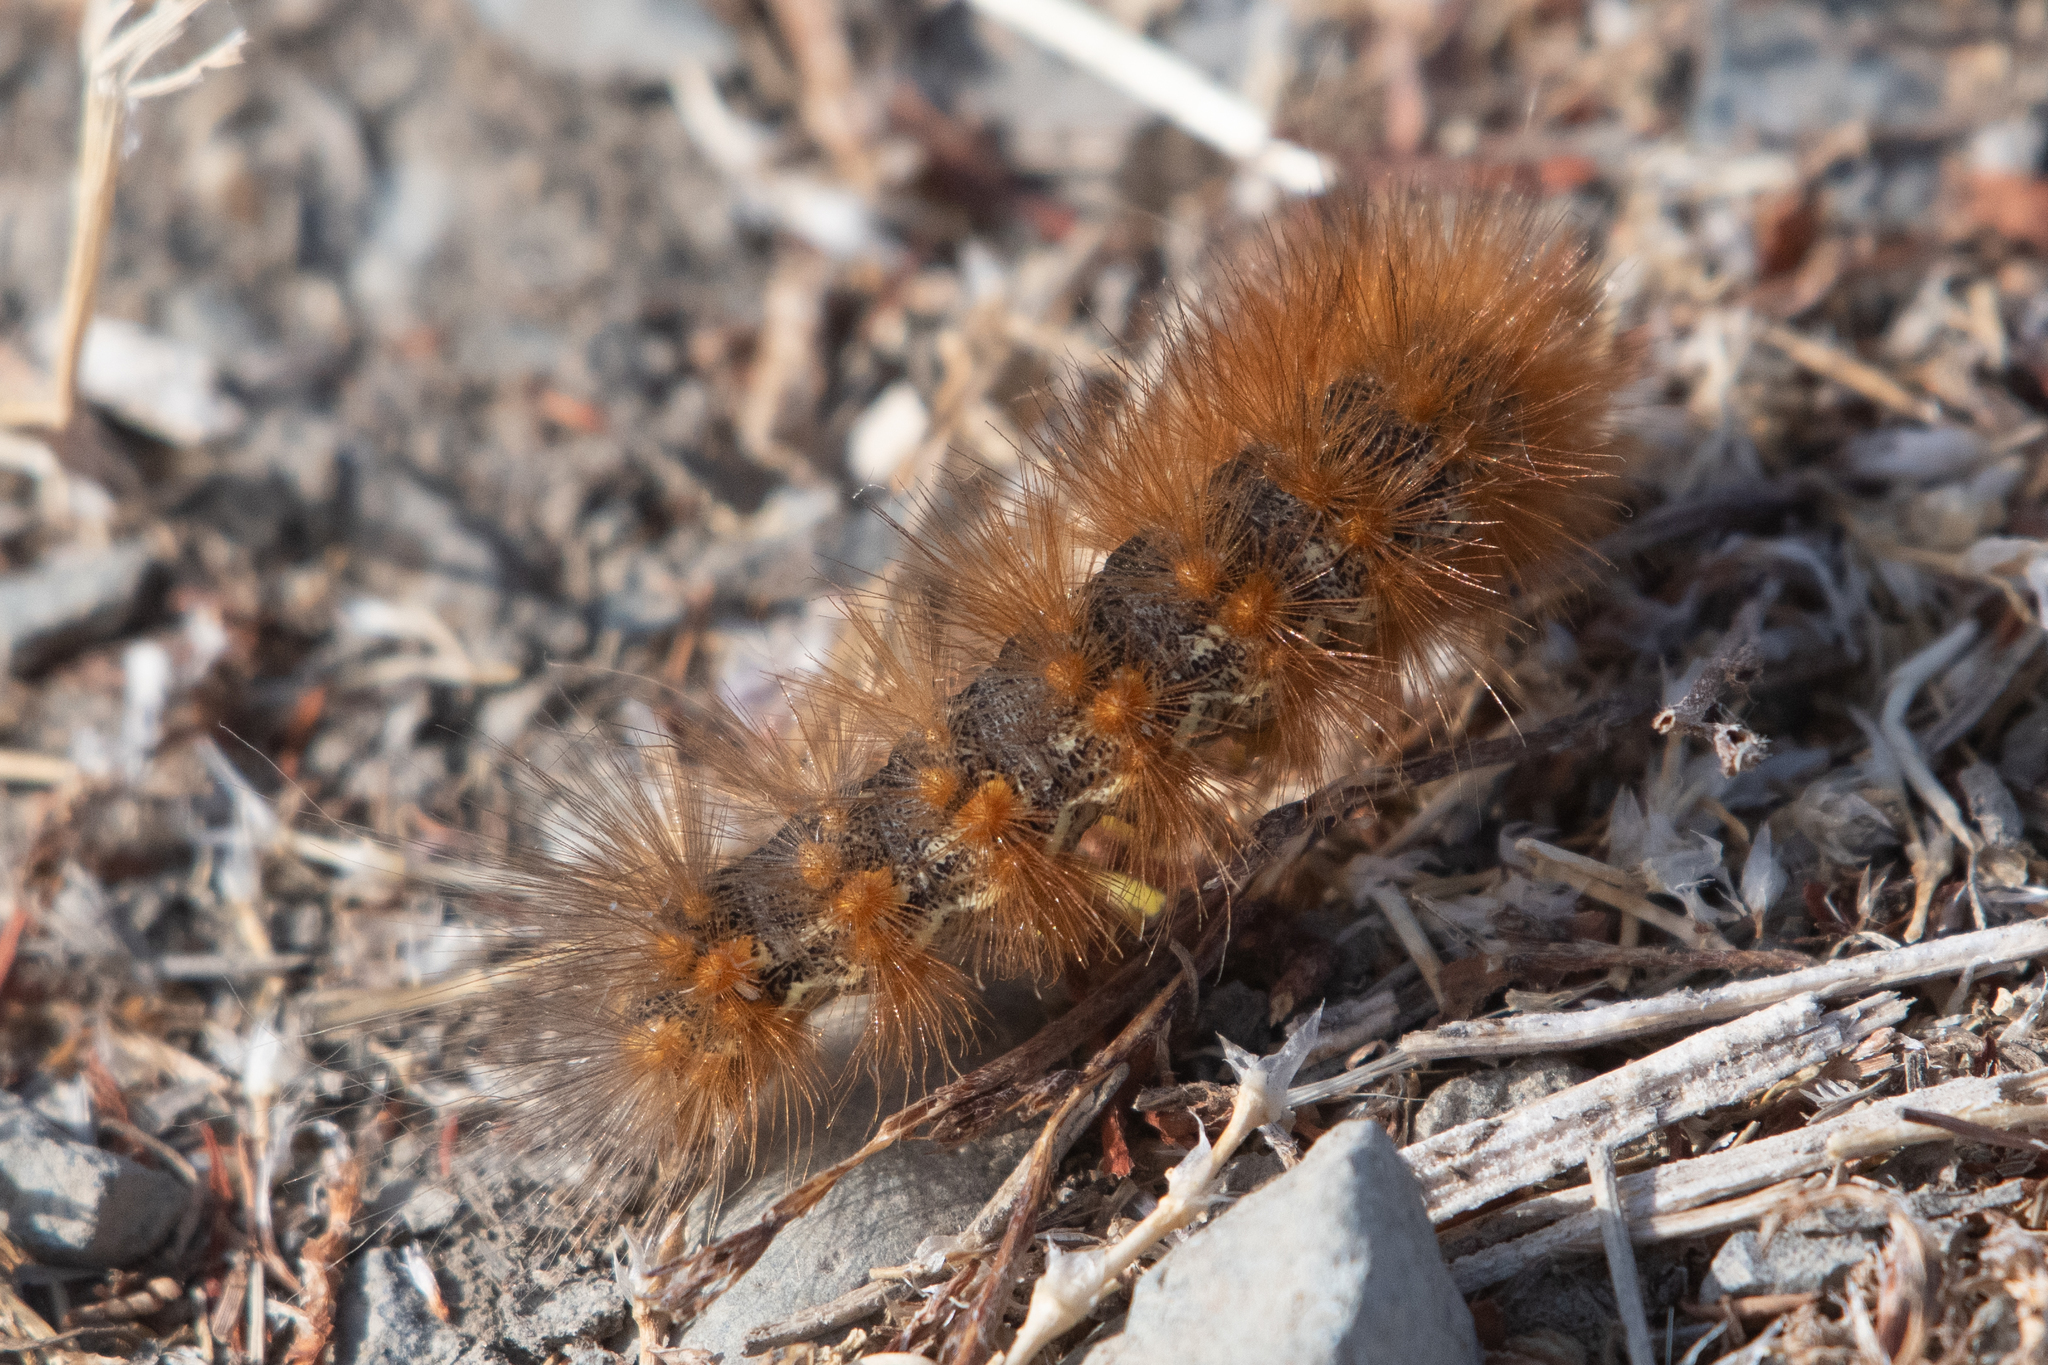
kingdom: Animalia
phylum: Arthropoda
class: Insecta
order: Lepidoptera
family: Erebidae
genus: Estigmene
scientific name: Estigmene acrea
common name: Salt marsh moth
